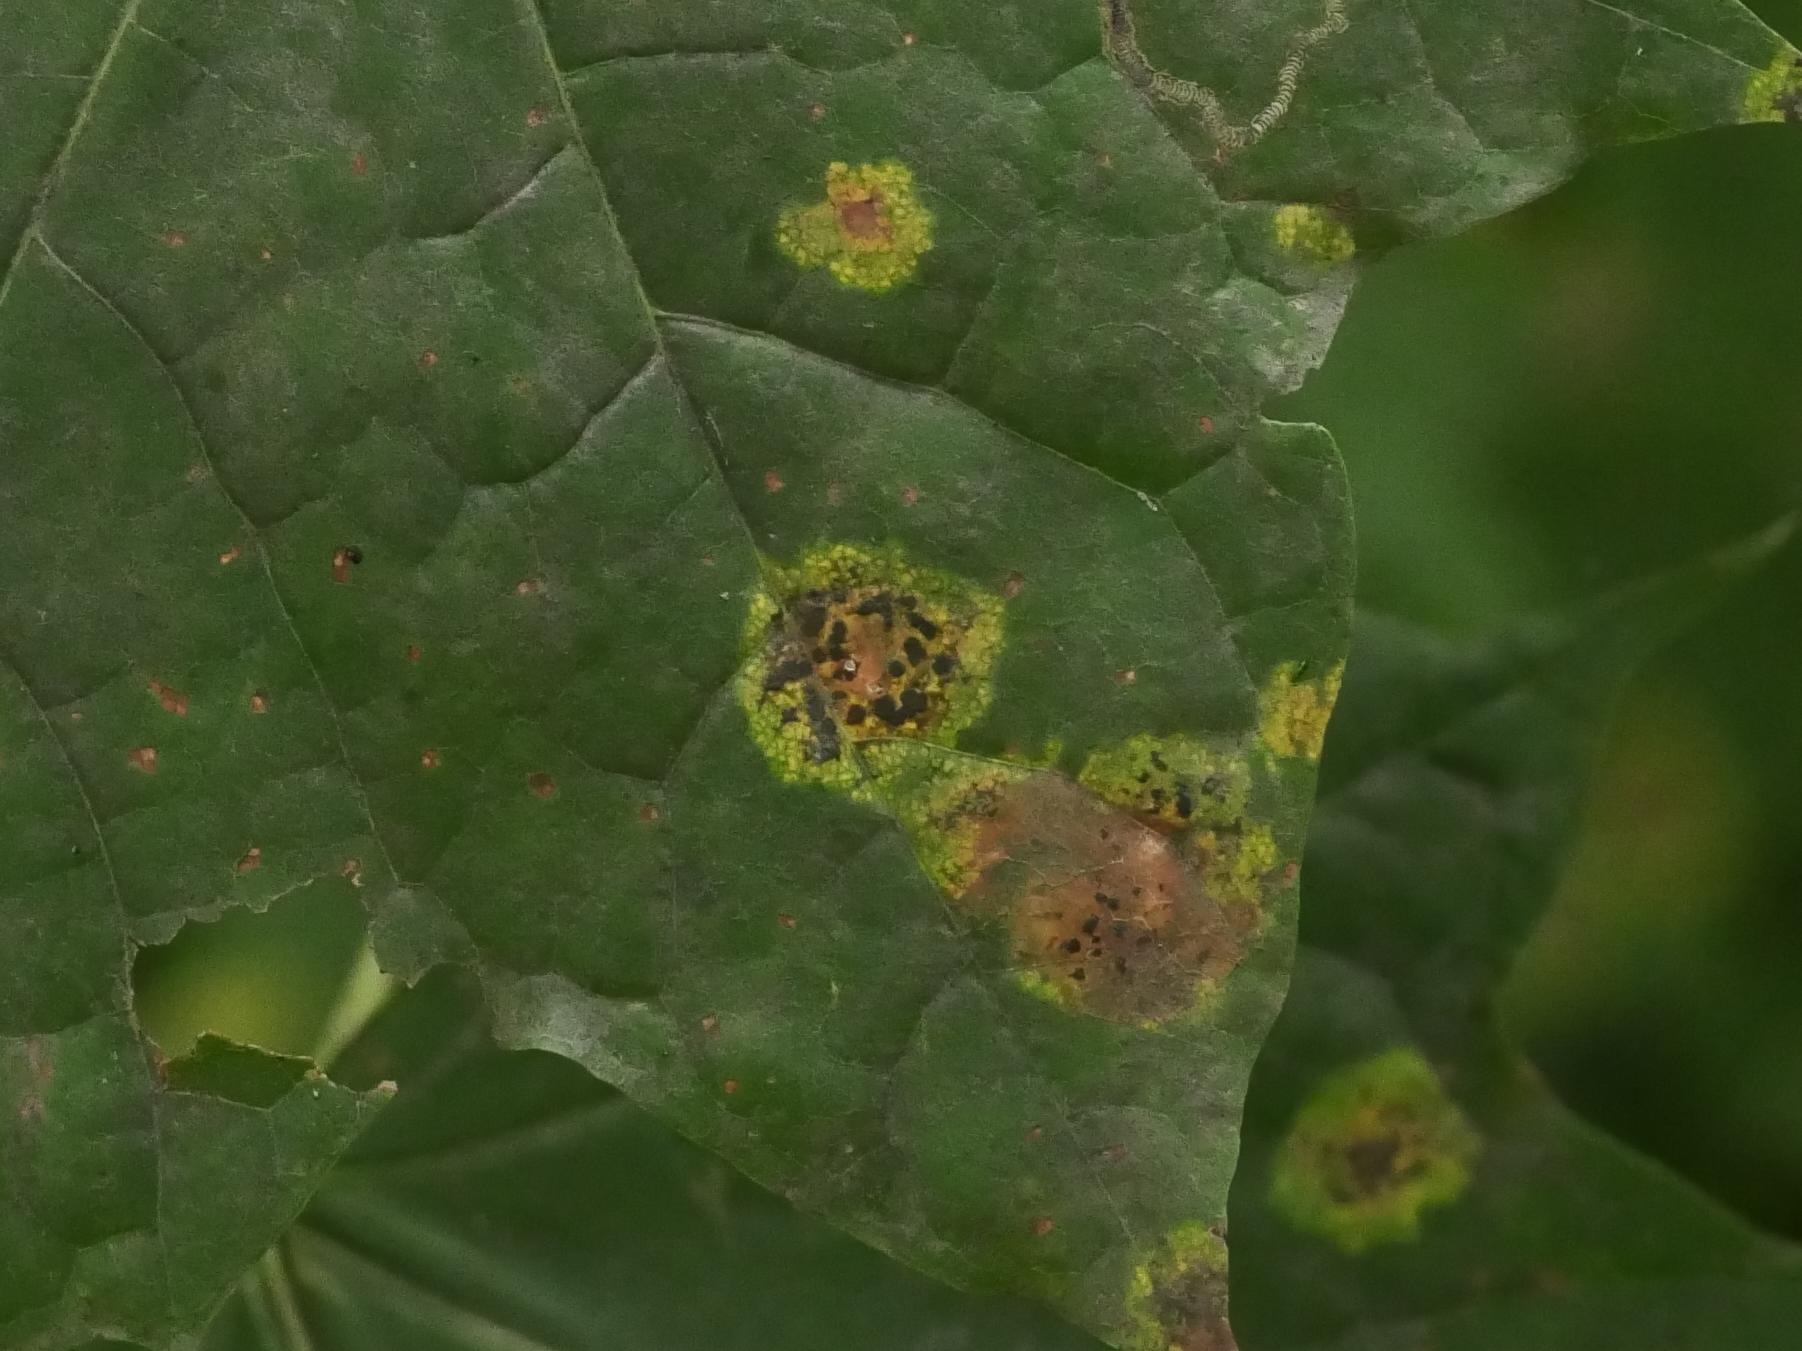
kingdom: Fungi
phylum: Ascomycota
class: Leotiomycetes
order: Rhytismatales
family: Rhytismataceae
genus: Rhytisma
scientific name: Rhytisma acerinum
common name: European tar spot
